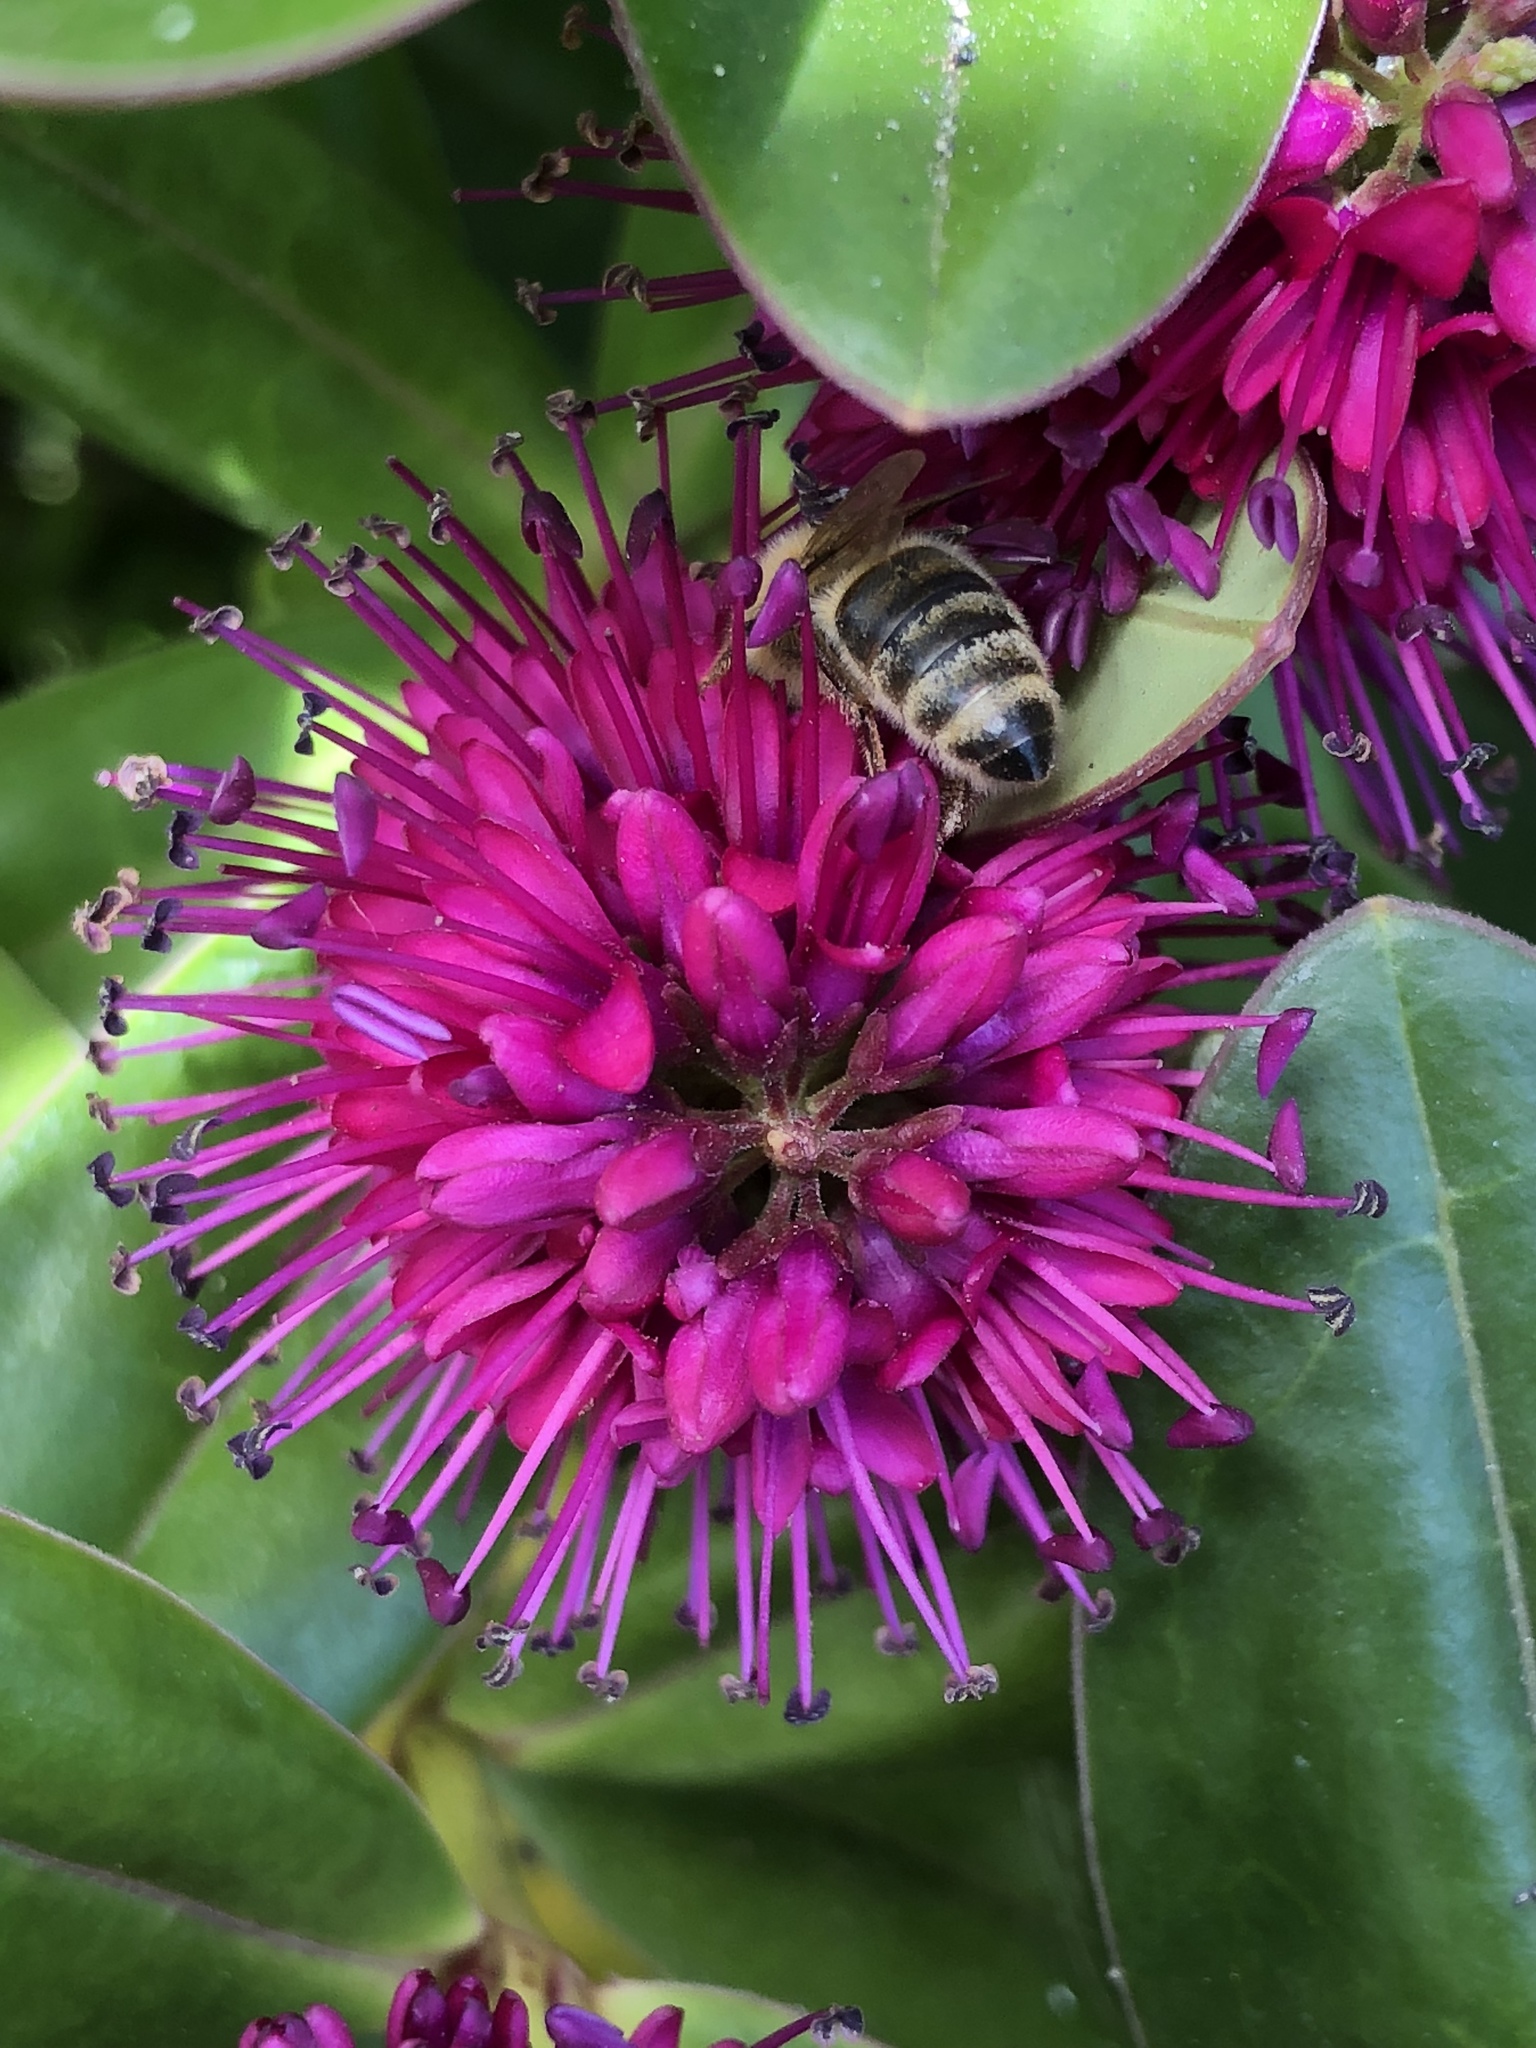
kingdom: Animalia
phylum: Arthropoda
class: Insecta
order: Hymenoptera
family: Apidae
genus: Apis
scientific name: Apis mellifera
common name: Honey bee
